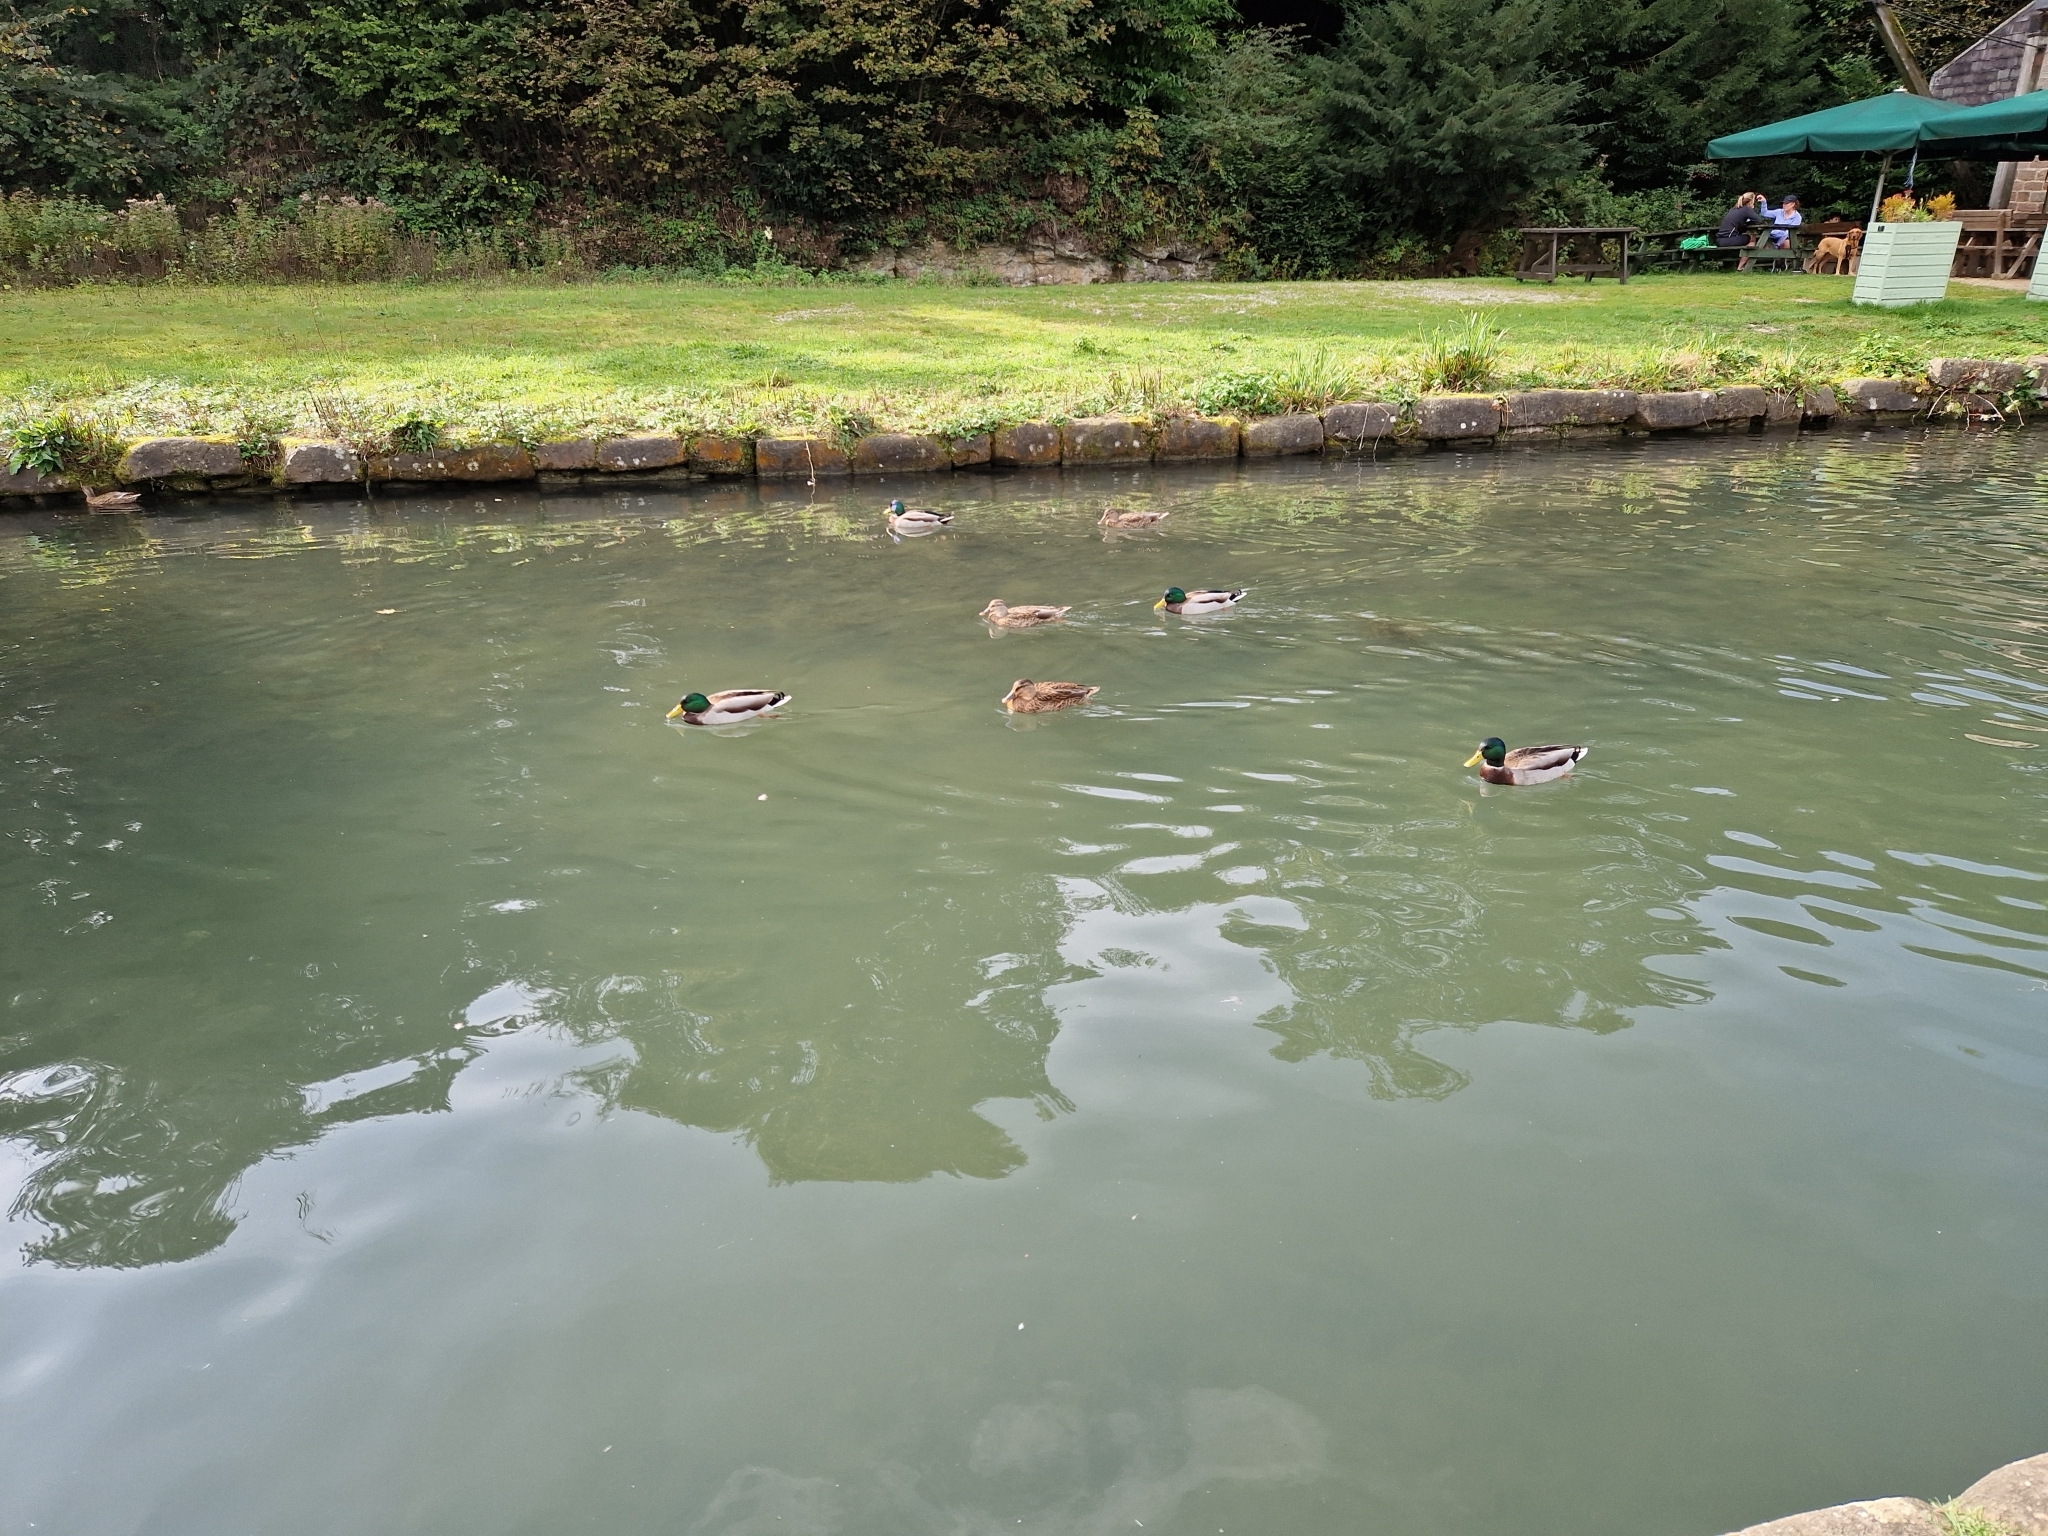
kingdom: Animalia
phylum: Chordata
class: Aves
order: Anseriformes
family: Anatidae
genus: Anas
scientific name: Anas platyrhynchos
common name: Mallard
